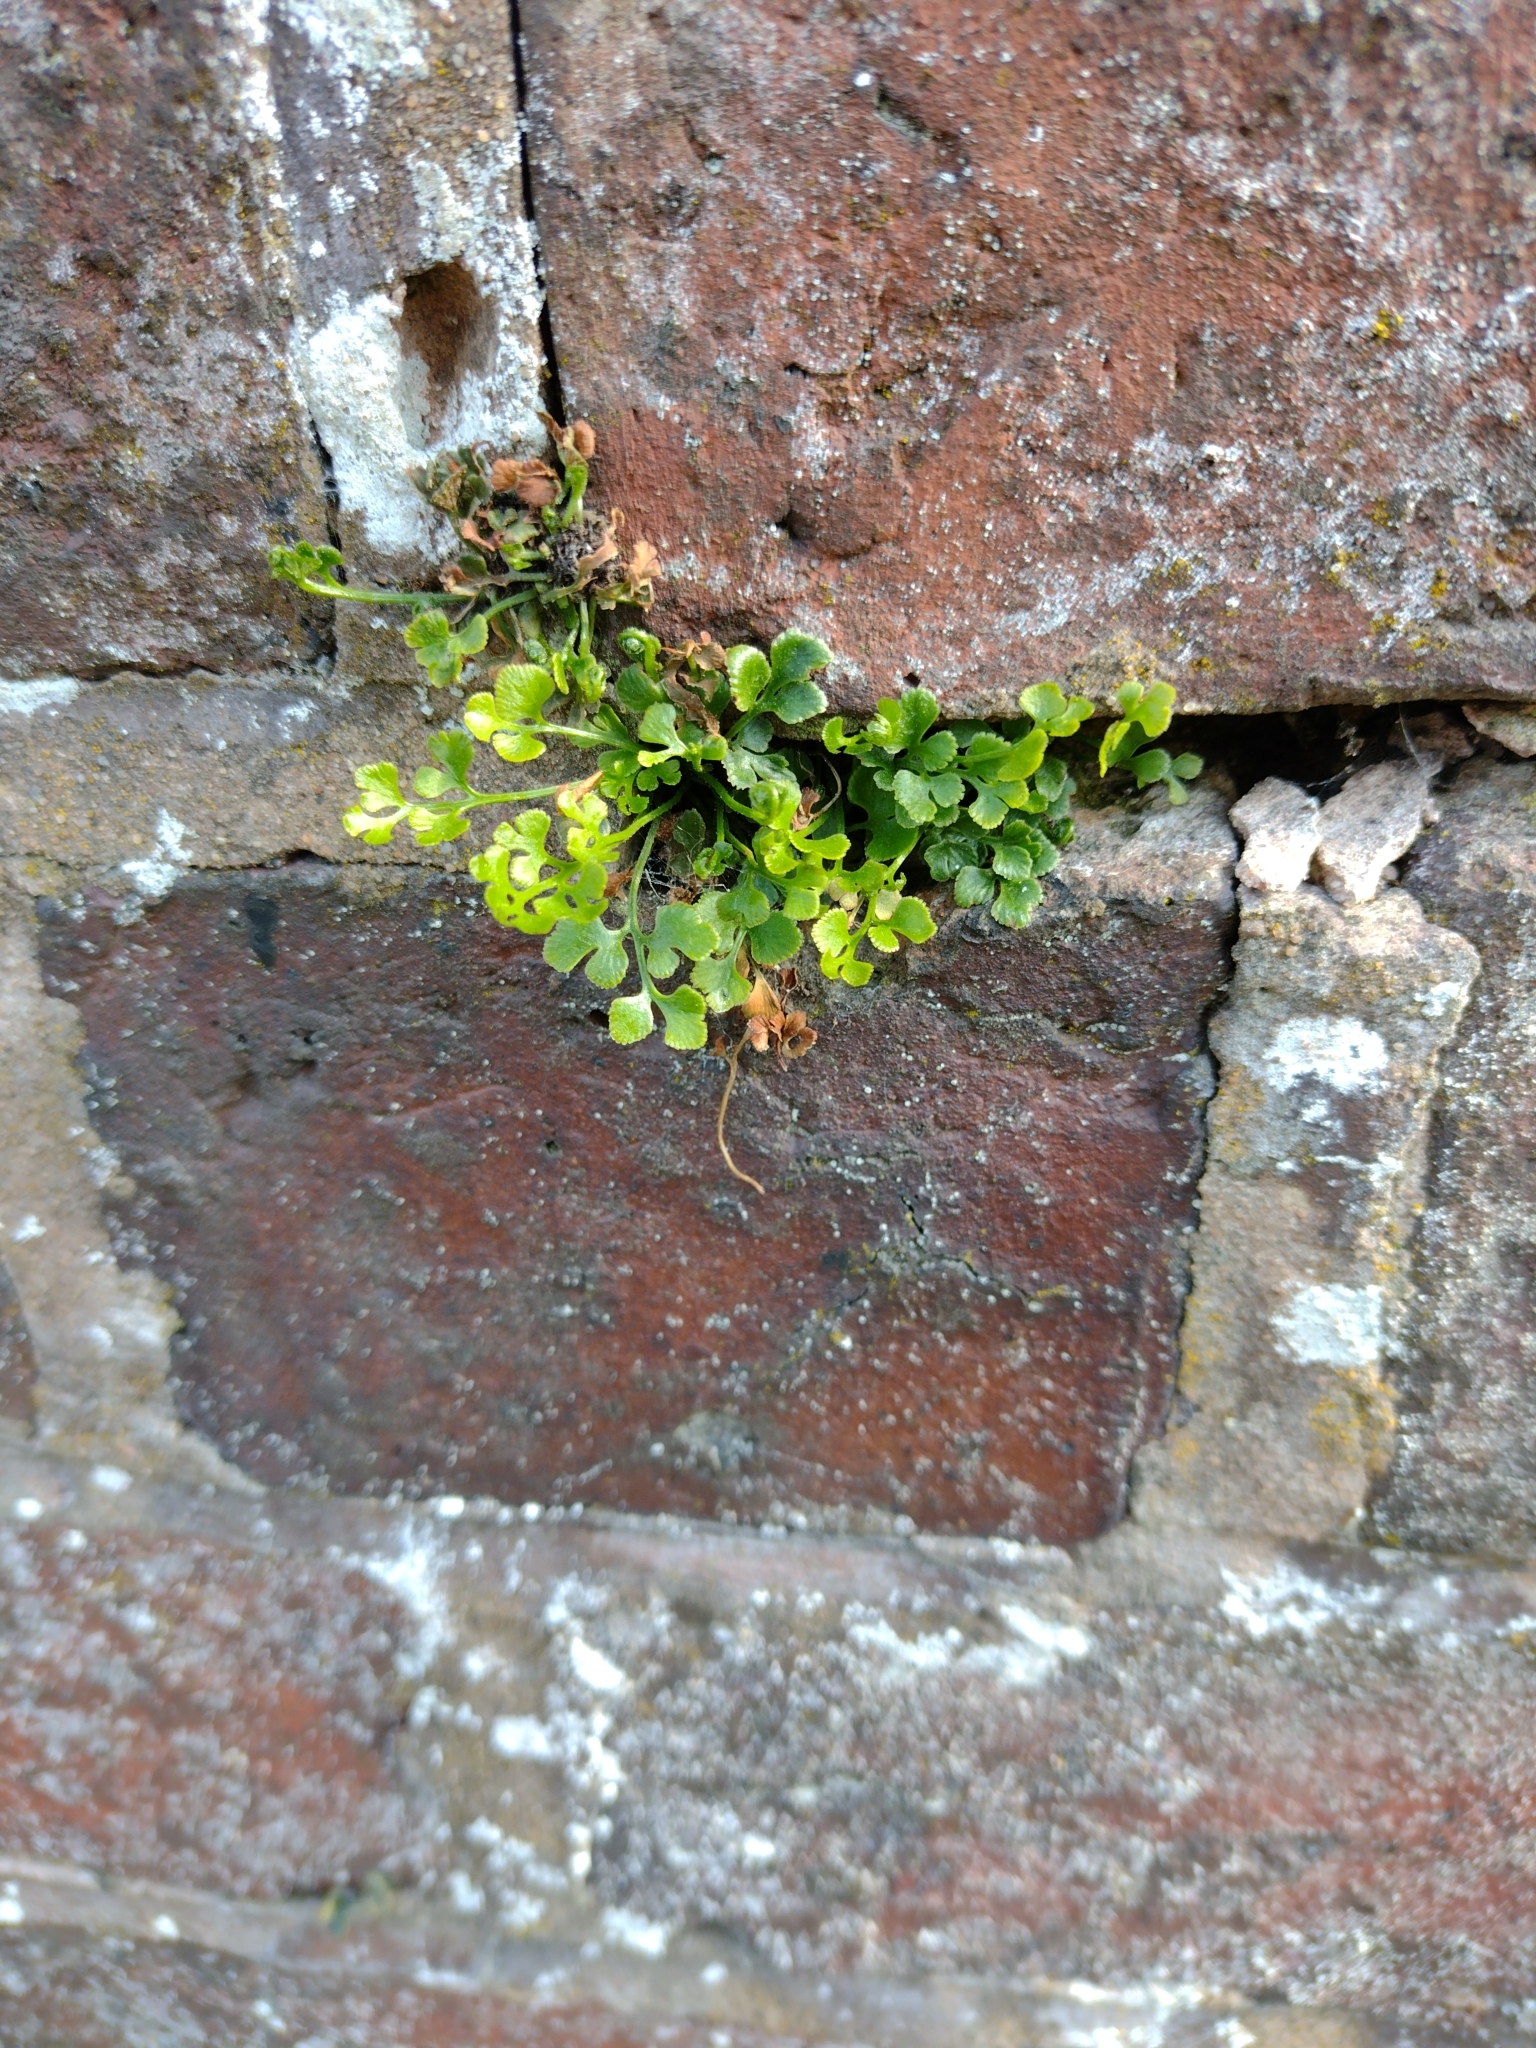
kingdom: Plantae
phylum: Tracheophyta
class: Polypodiopsida
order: Polypodiales
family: Aspleniaceae
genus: Asplenium
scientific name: Asplenium ruta-muraria
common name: Wall-rue
